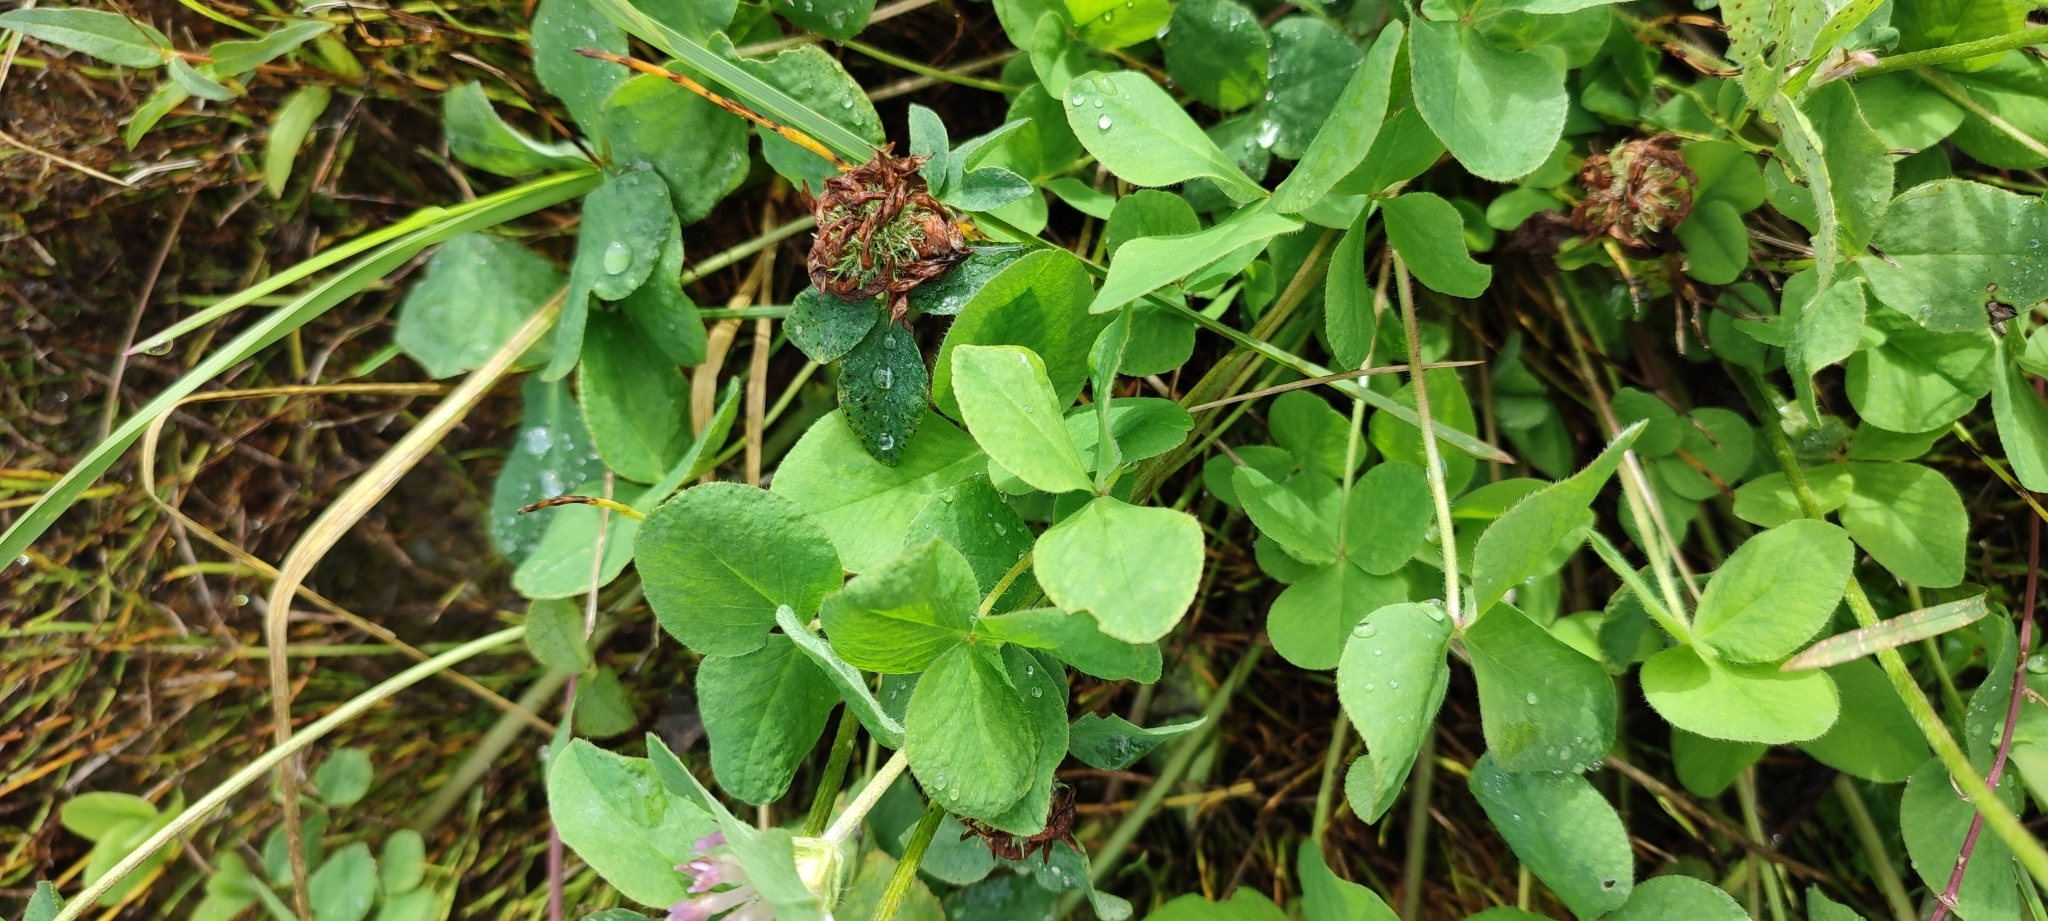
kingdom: Plantae
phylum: Tracheophyta
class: Magnoliopsida
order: Fabales
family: Fabaceae
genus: Trifolium
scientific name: Trifolium pratense
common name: Red clover
